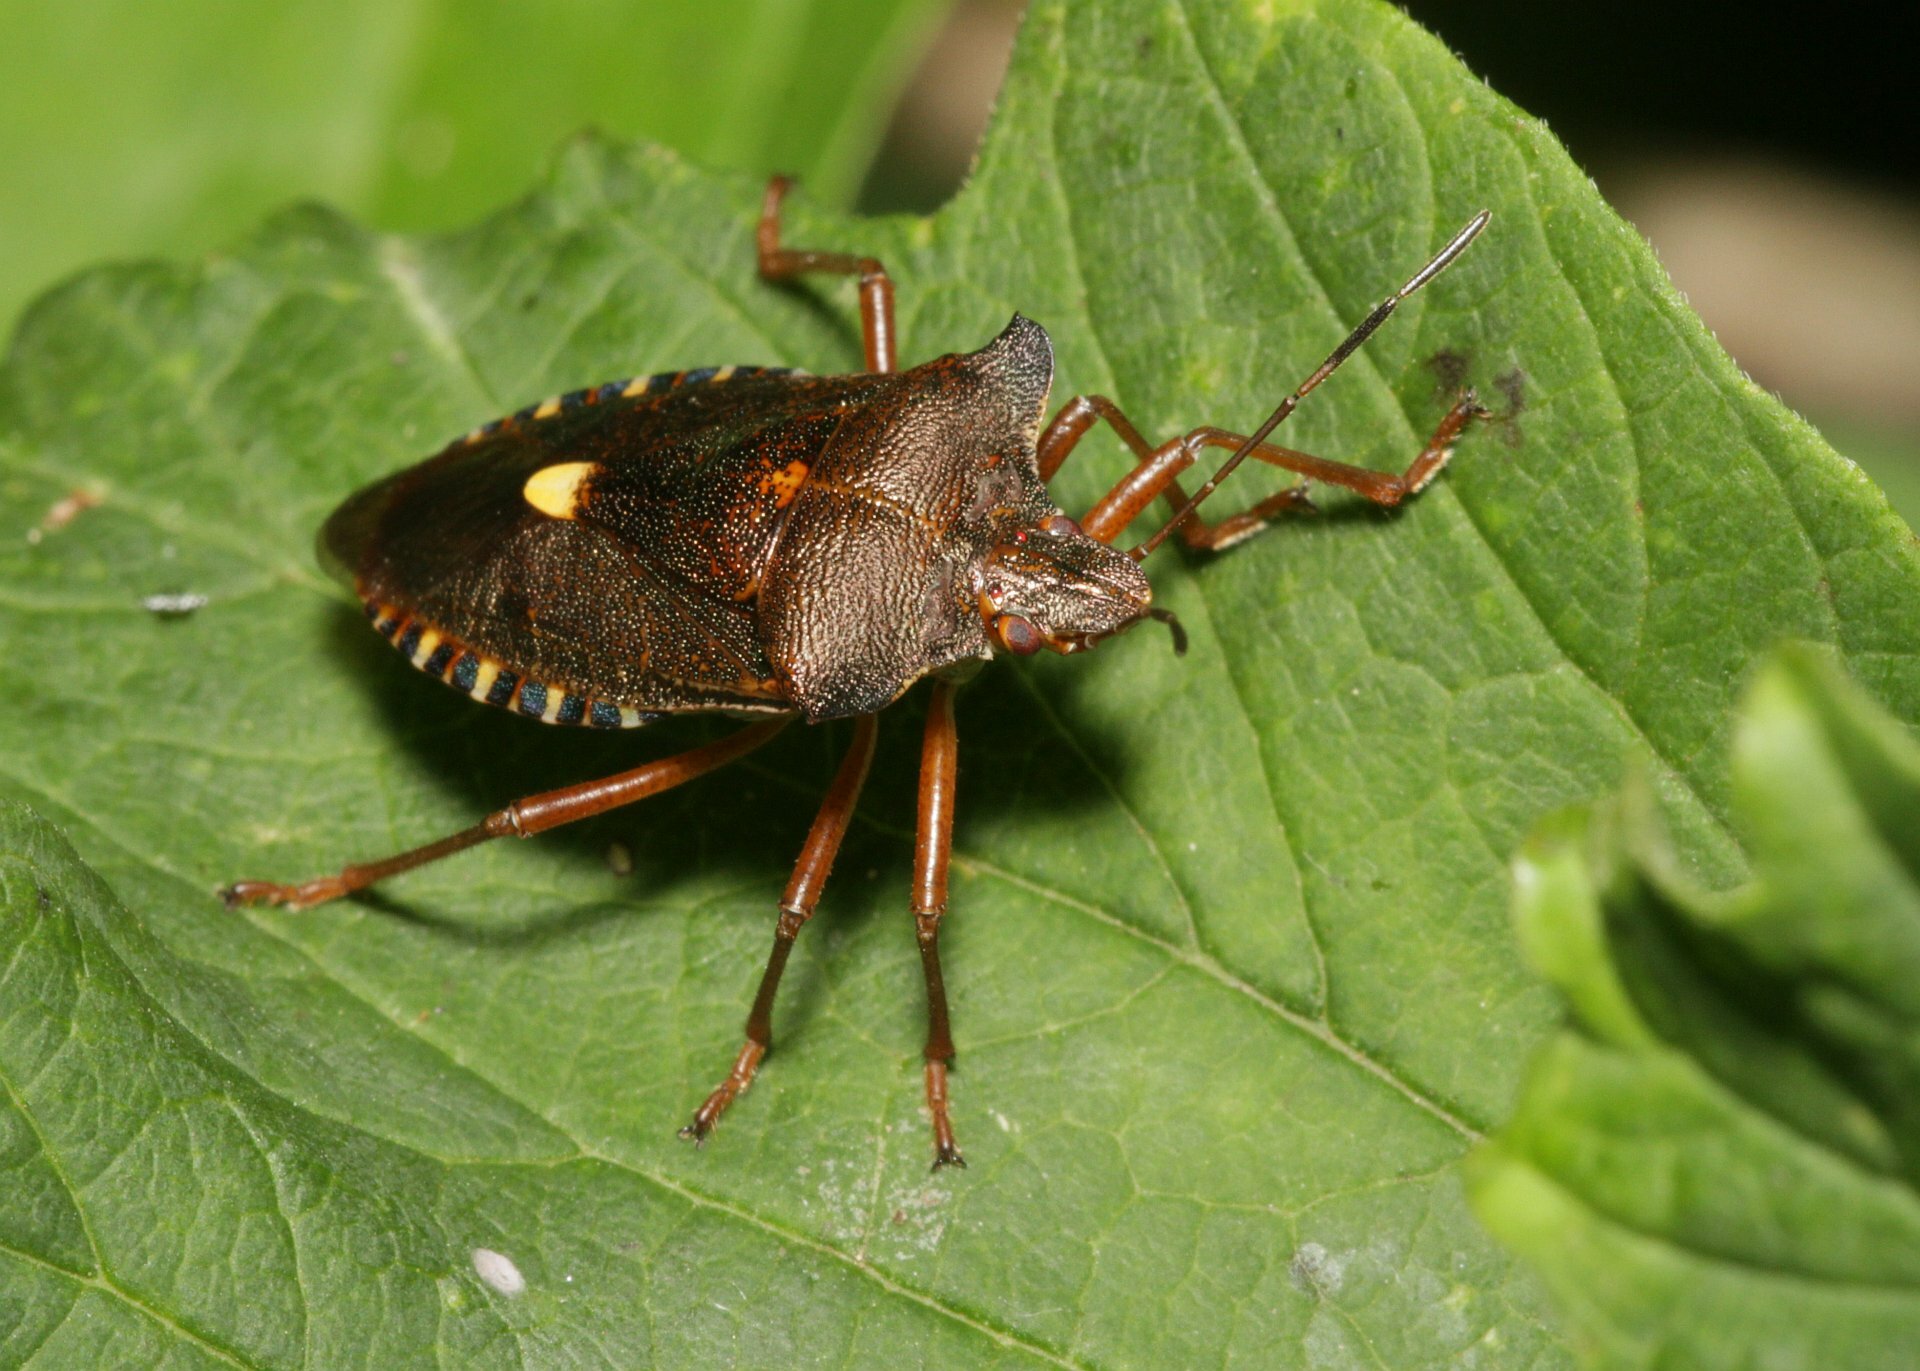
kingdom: Animalia
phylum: Arthropoda
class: Insecta
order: Hemiptera
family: Pentatomidae
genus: Pentatoma
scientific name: Pentatoma rufipes
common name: Forest bug
